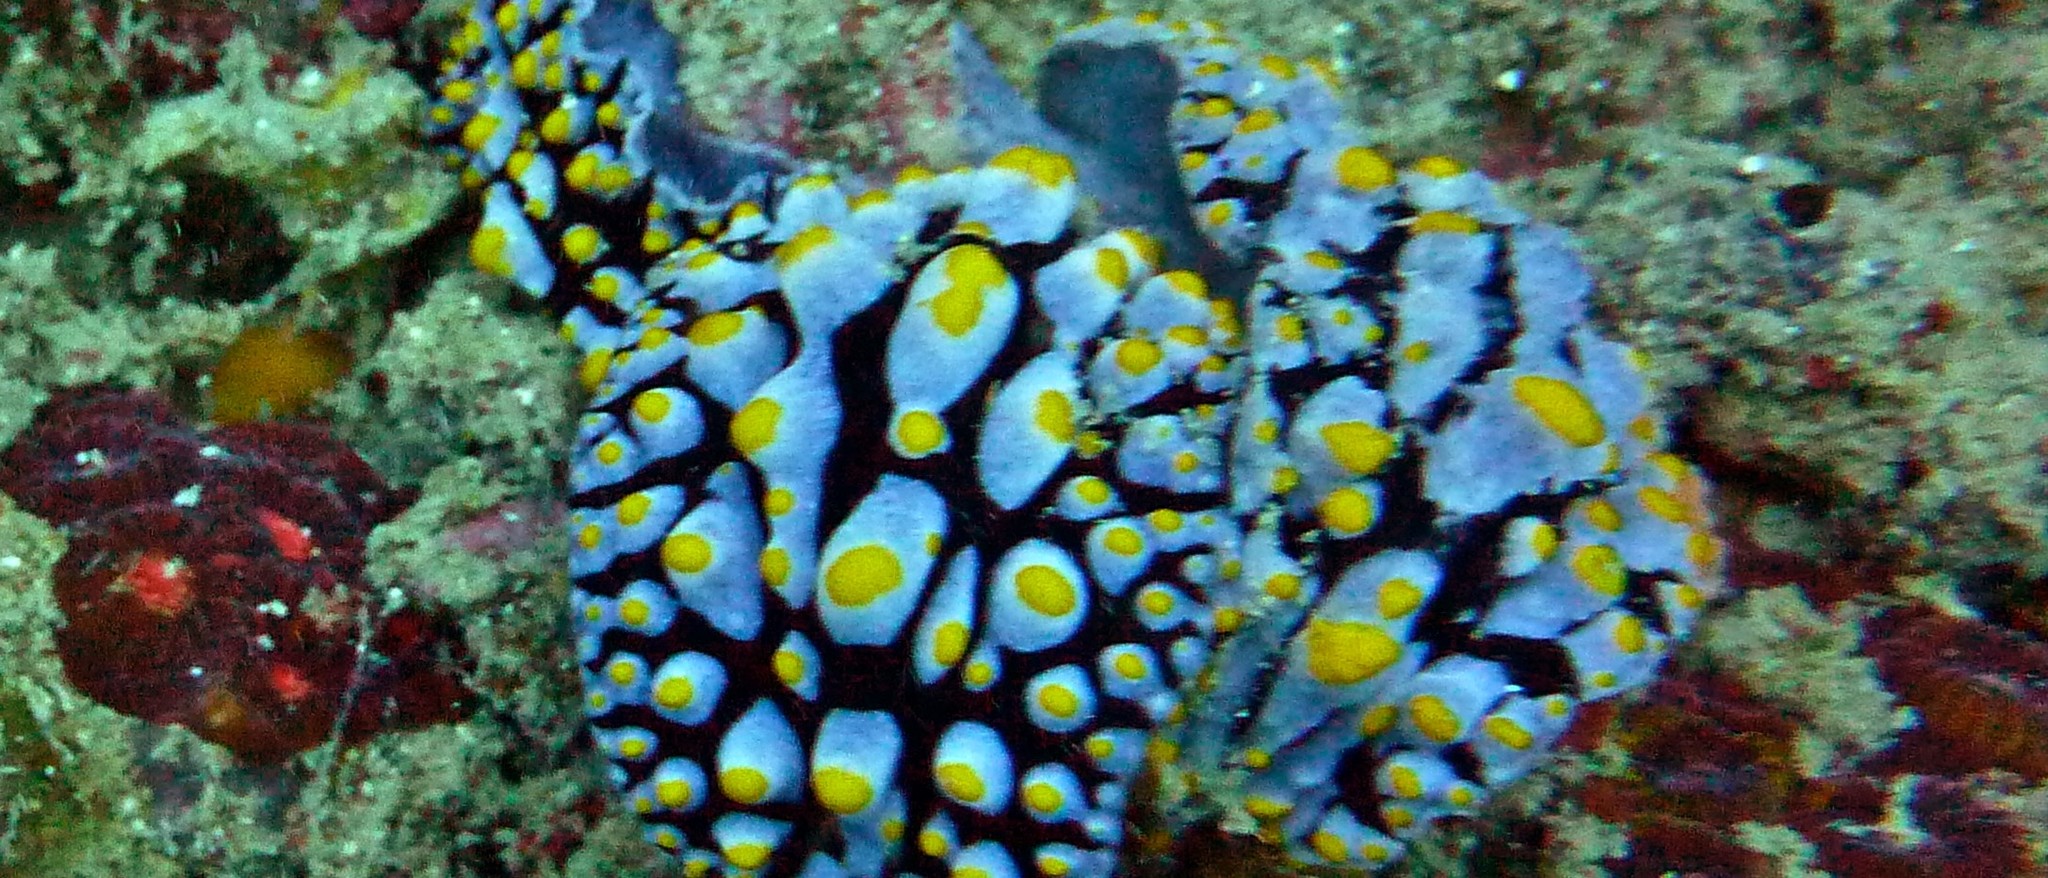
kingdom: Animalia
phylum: Mollusca
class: Gastropoda
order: Nudibranchia
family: Phyllidiidae
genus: Phyllidia
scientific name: Phyllidia varicosa
